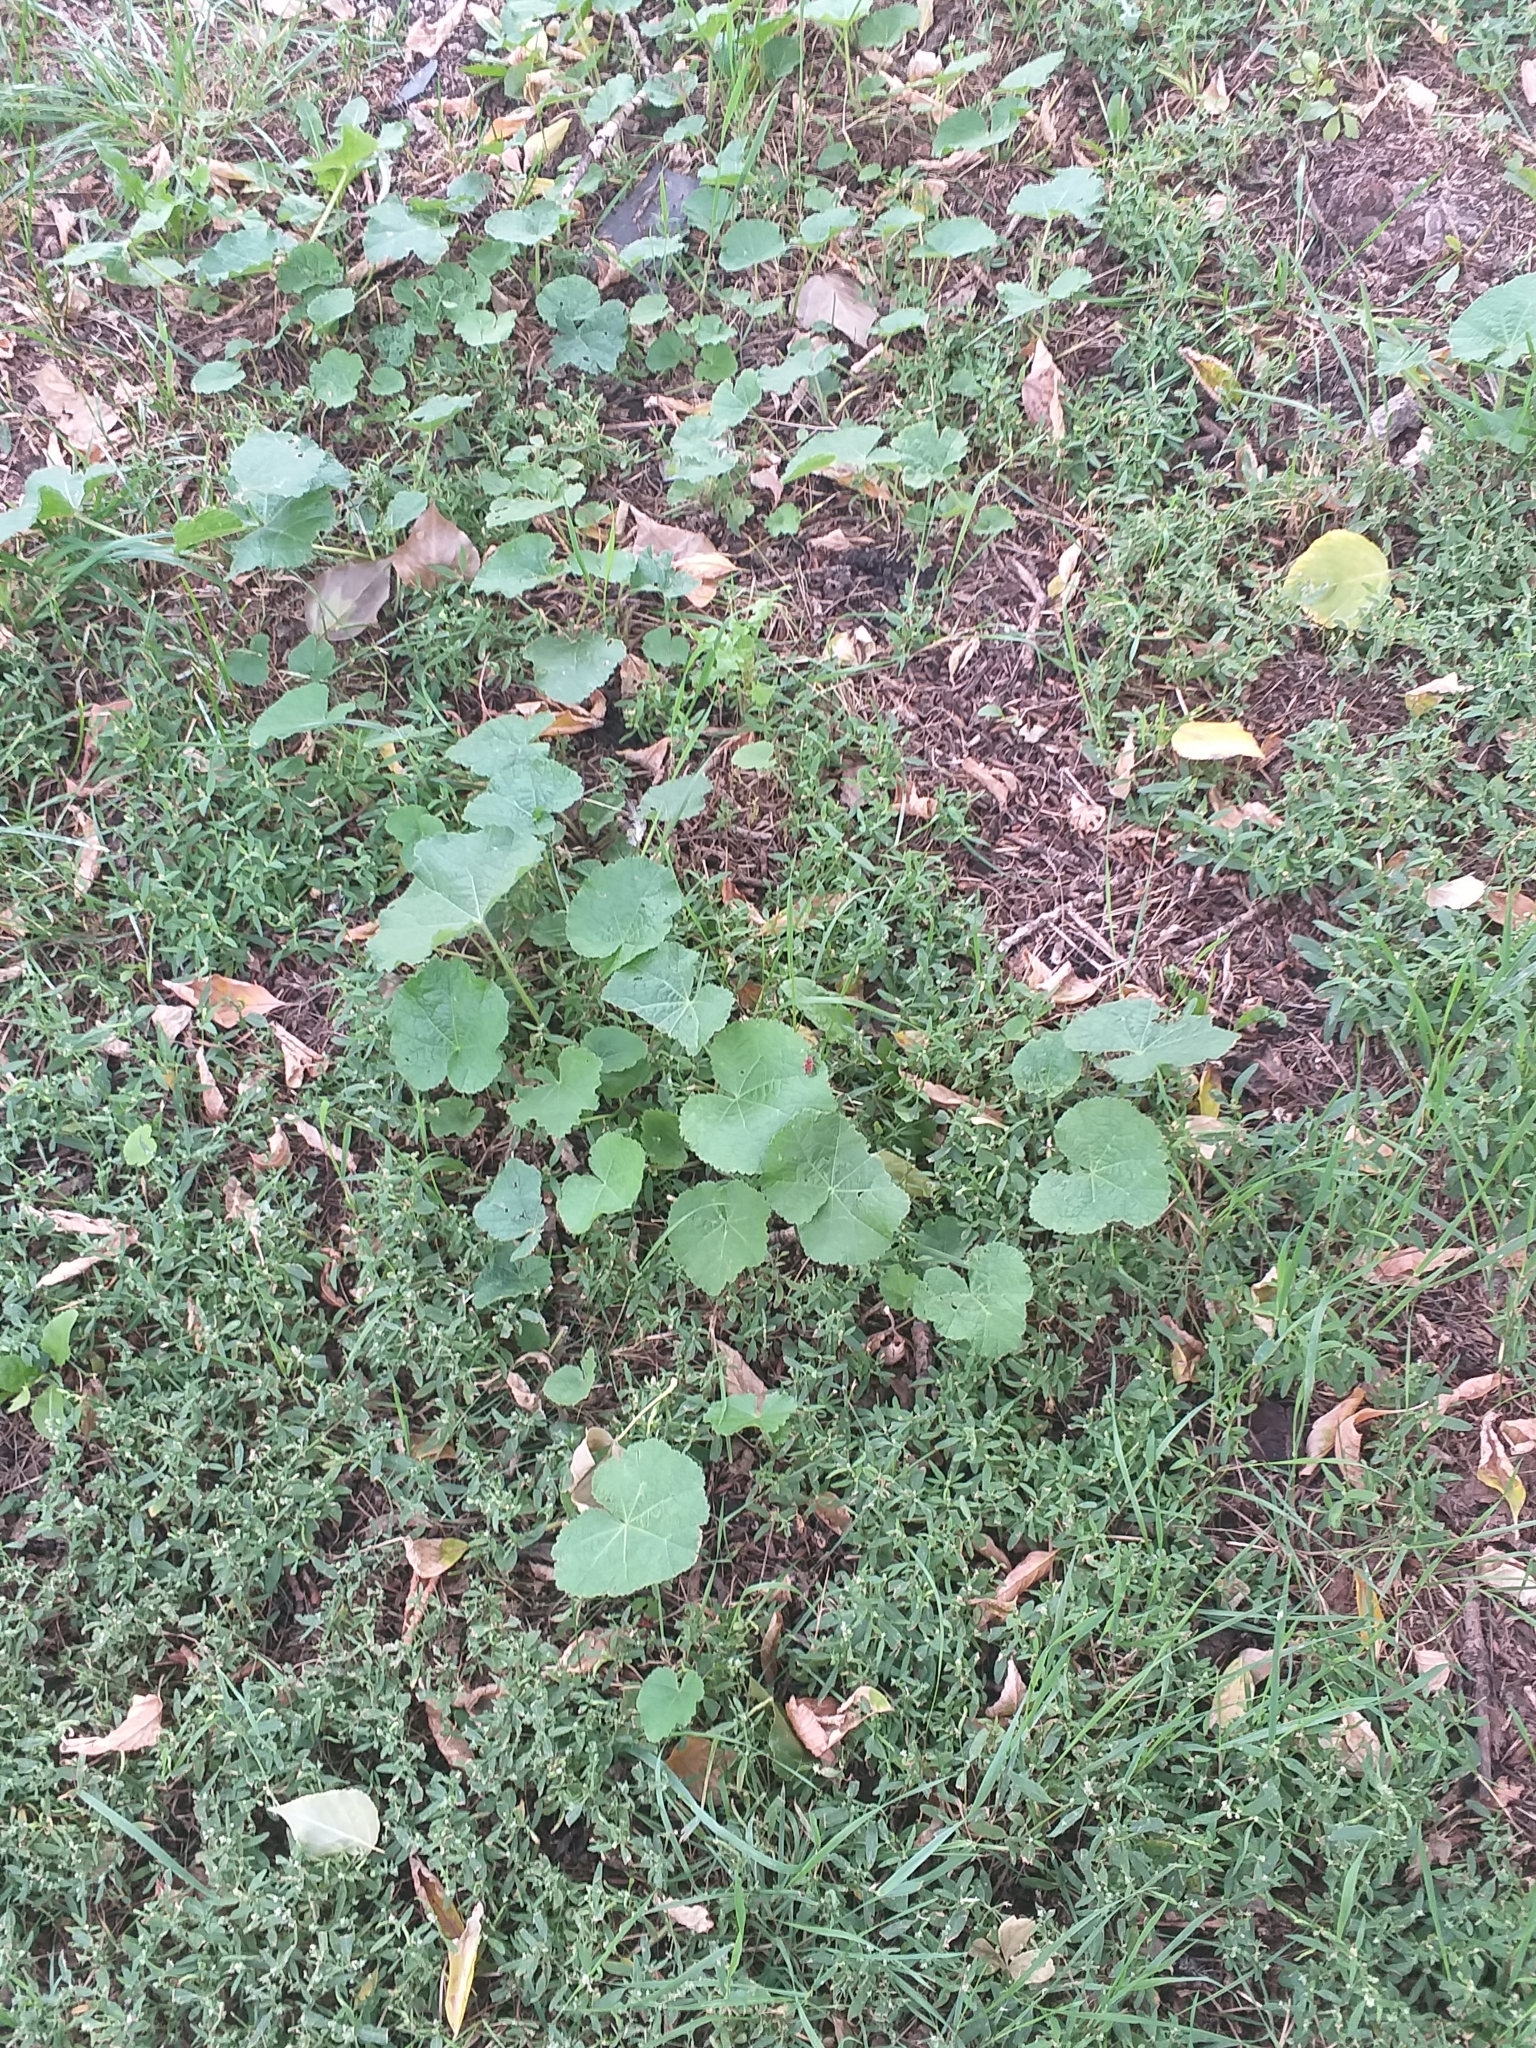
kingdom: Plantae
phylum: Tracheophyta
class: Magnoliopsida
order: Malvales
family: Malvaceae
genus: Alcea
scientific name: Alcea rosea
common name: Hollyhock
